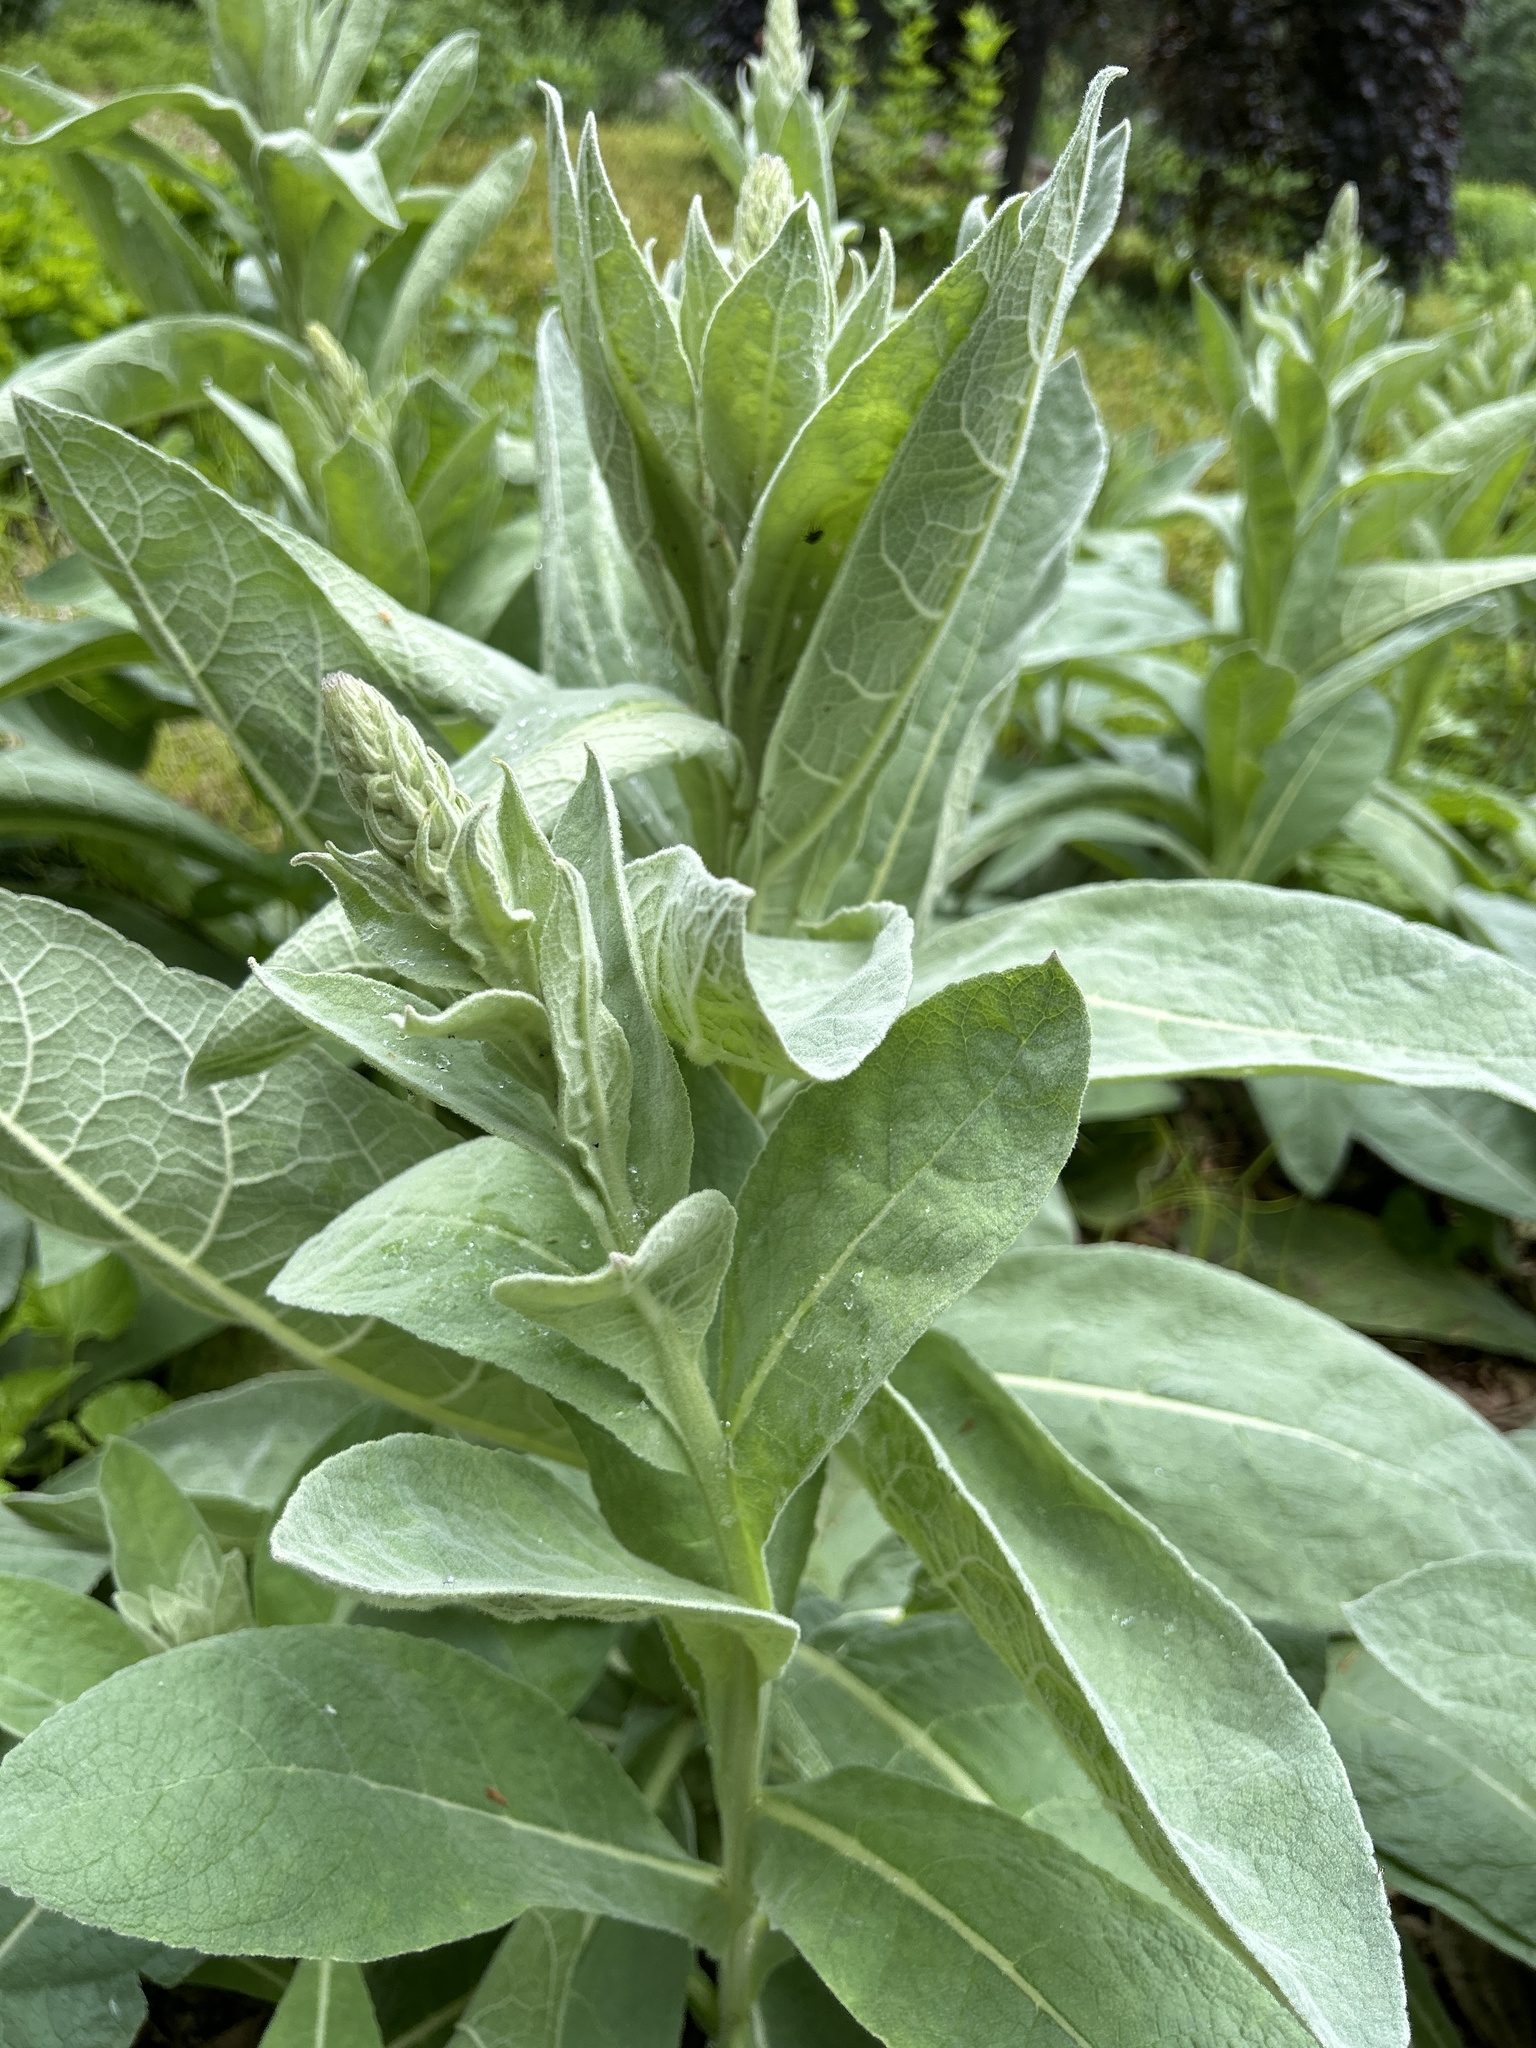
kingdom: Plantae
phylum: Tracheophyta
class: Magnoliopsida
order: Lamiales
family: Scrophulariaceae
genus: Verbascum
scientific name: Verbascum thapsus
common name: Common mullein
